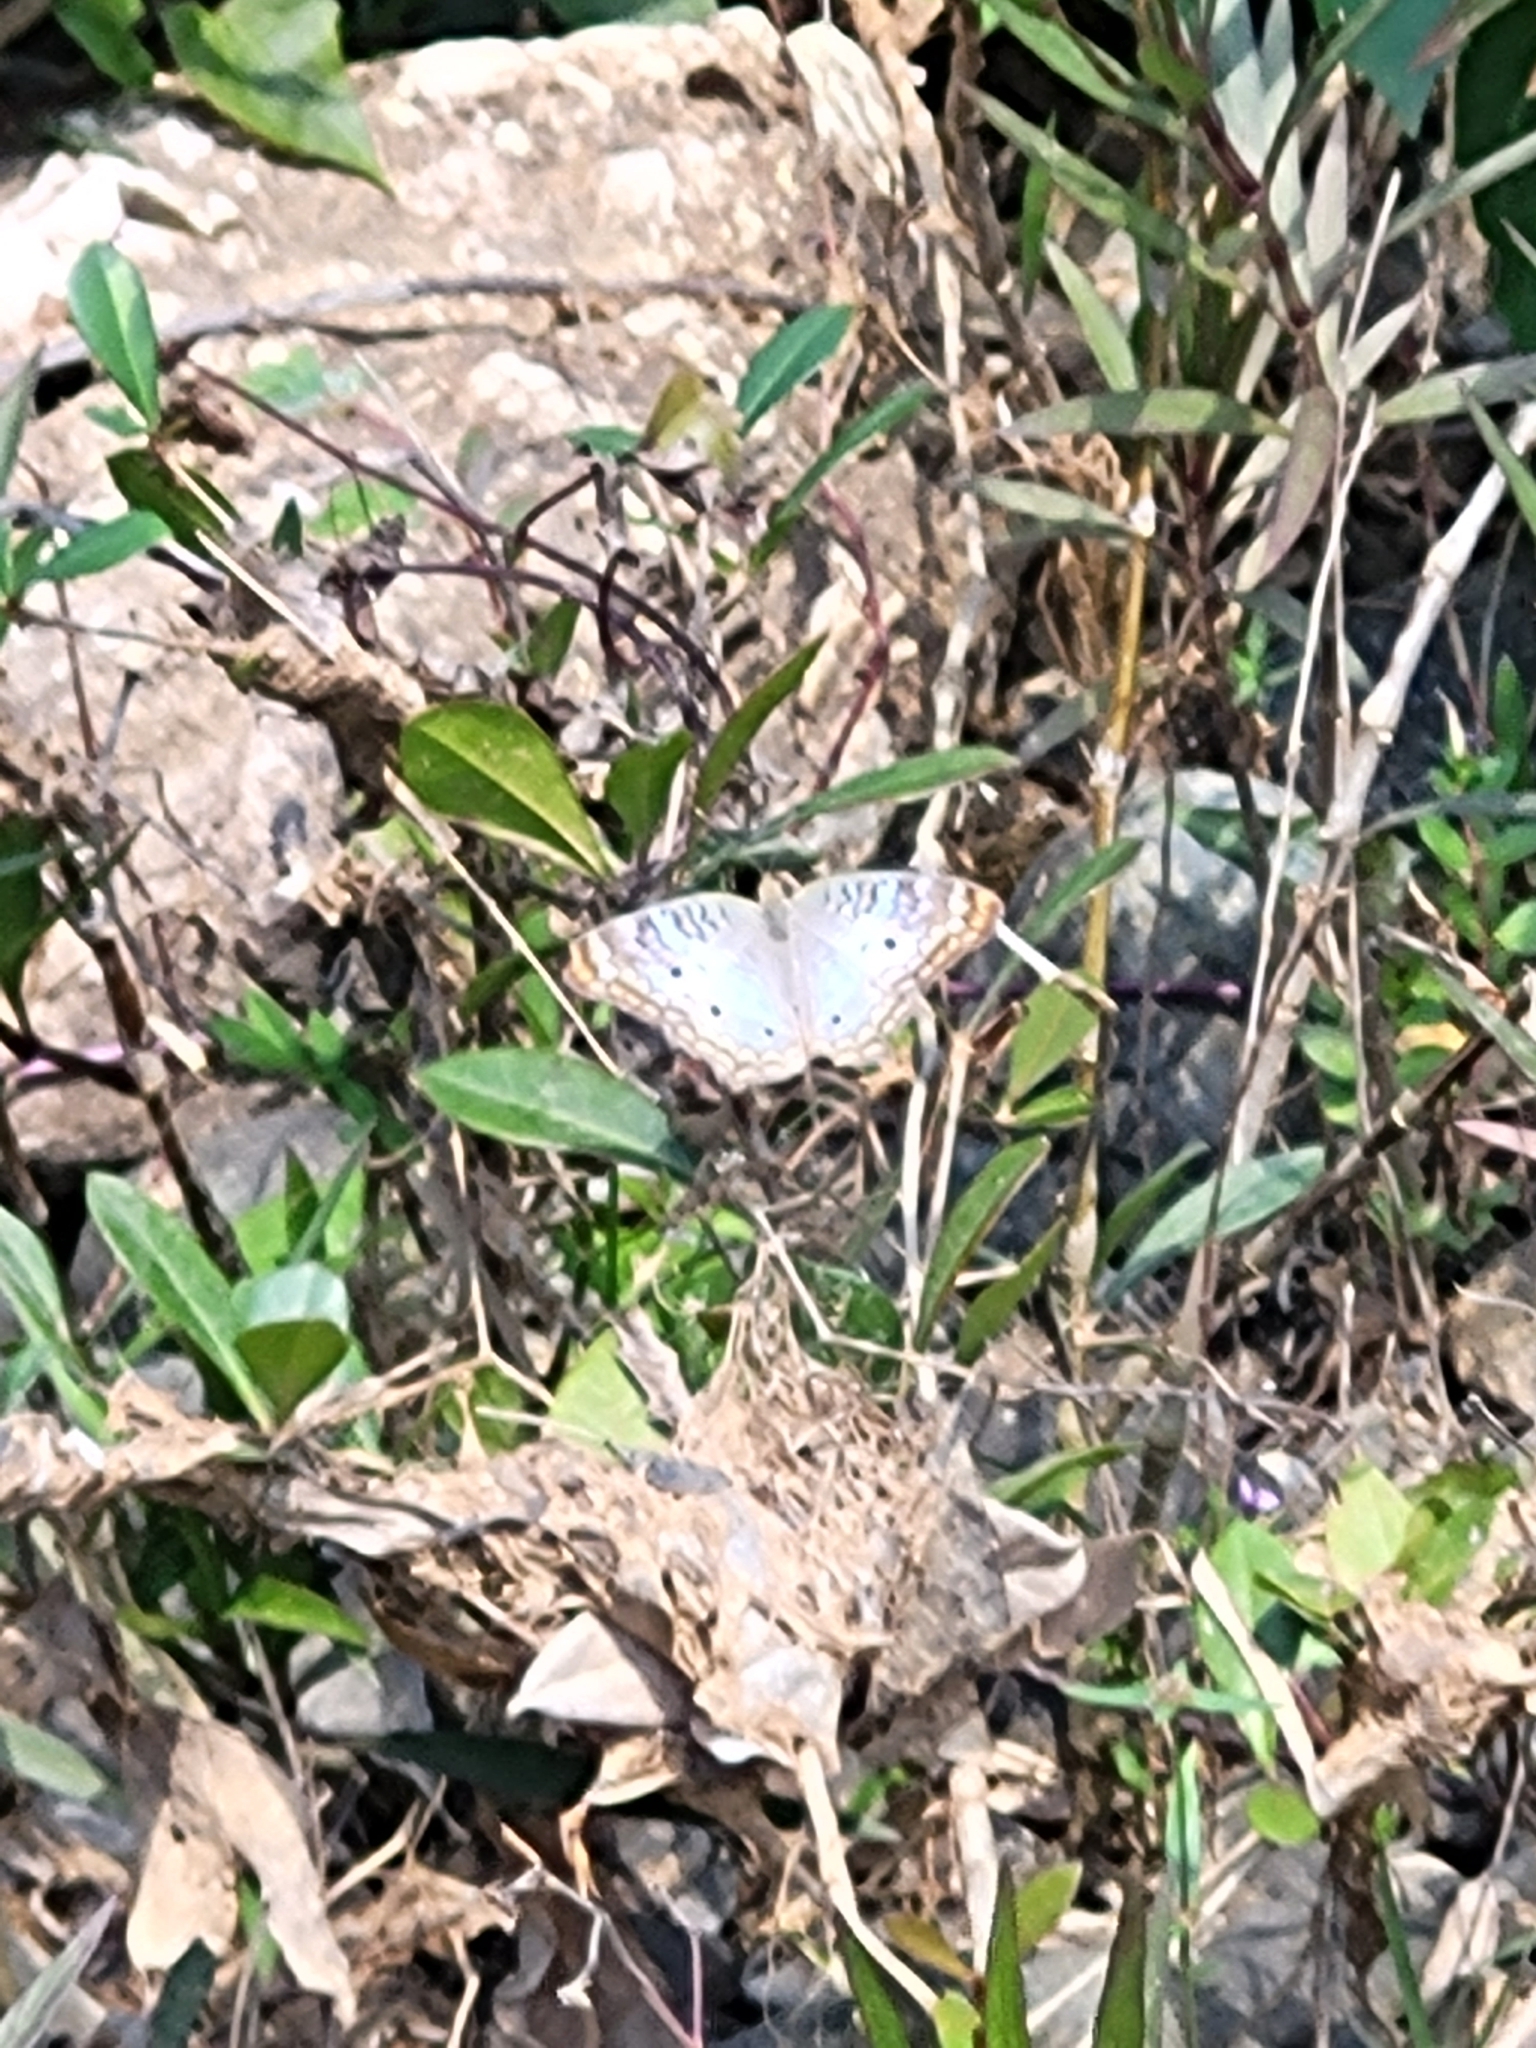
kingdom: Animalia
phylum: Arthropoda
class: Insecta
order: Lepidoptera
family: Nymphalidae
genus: Anartia
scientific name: Anartia jatrophae
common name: White peacock
